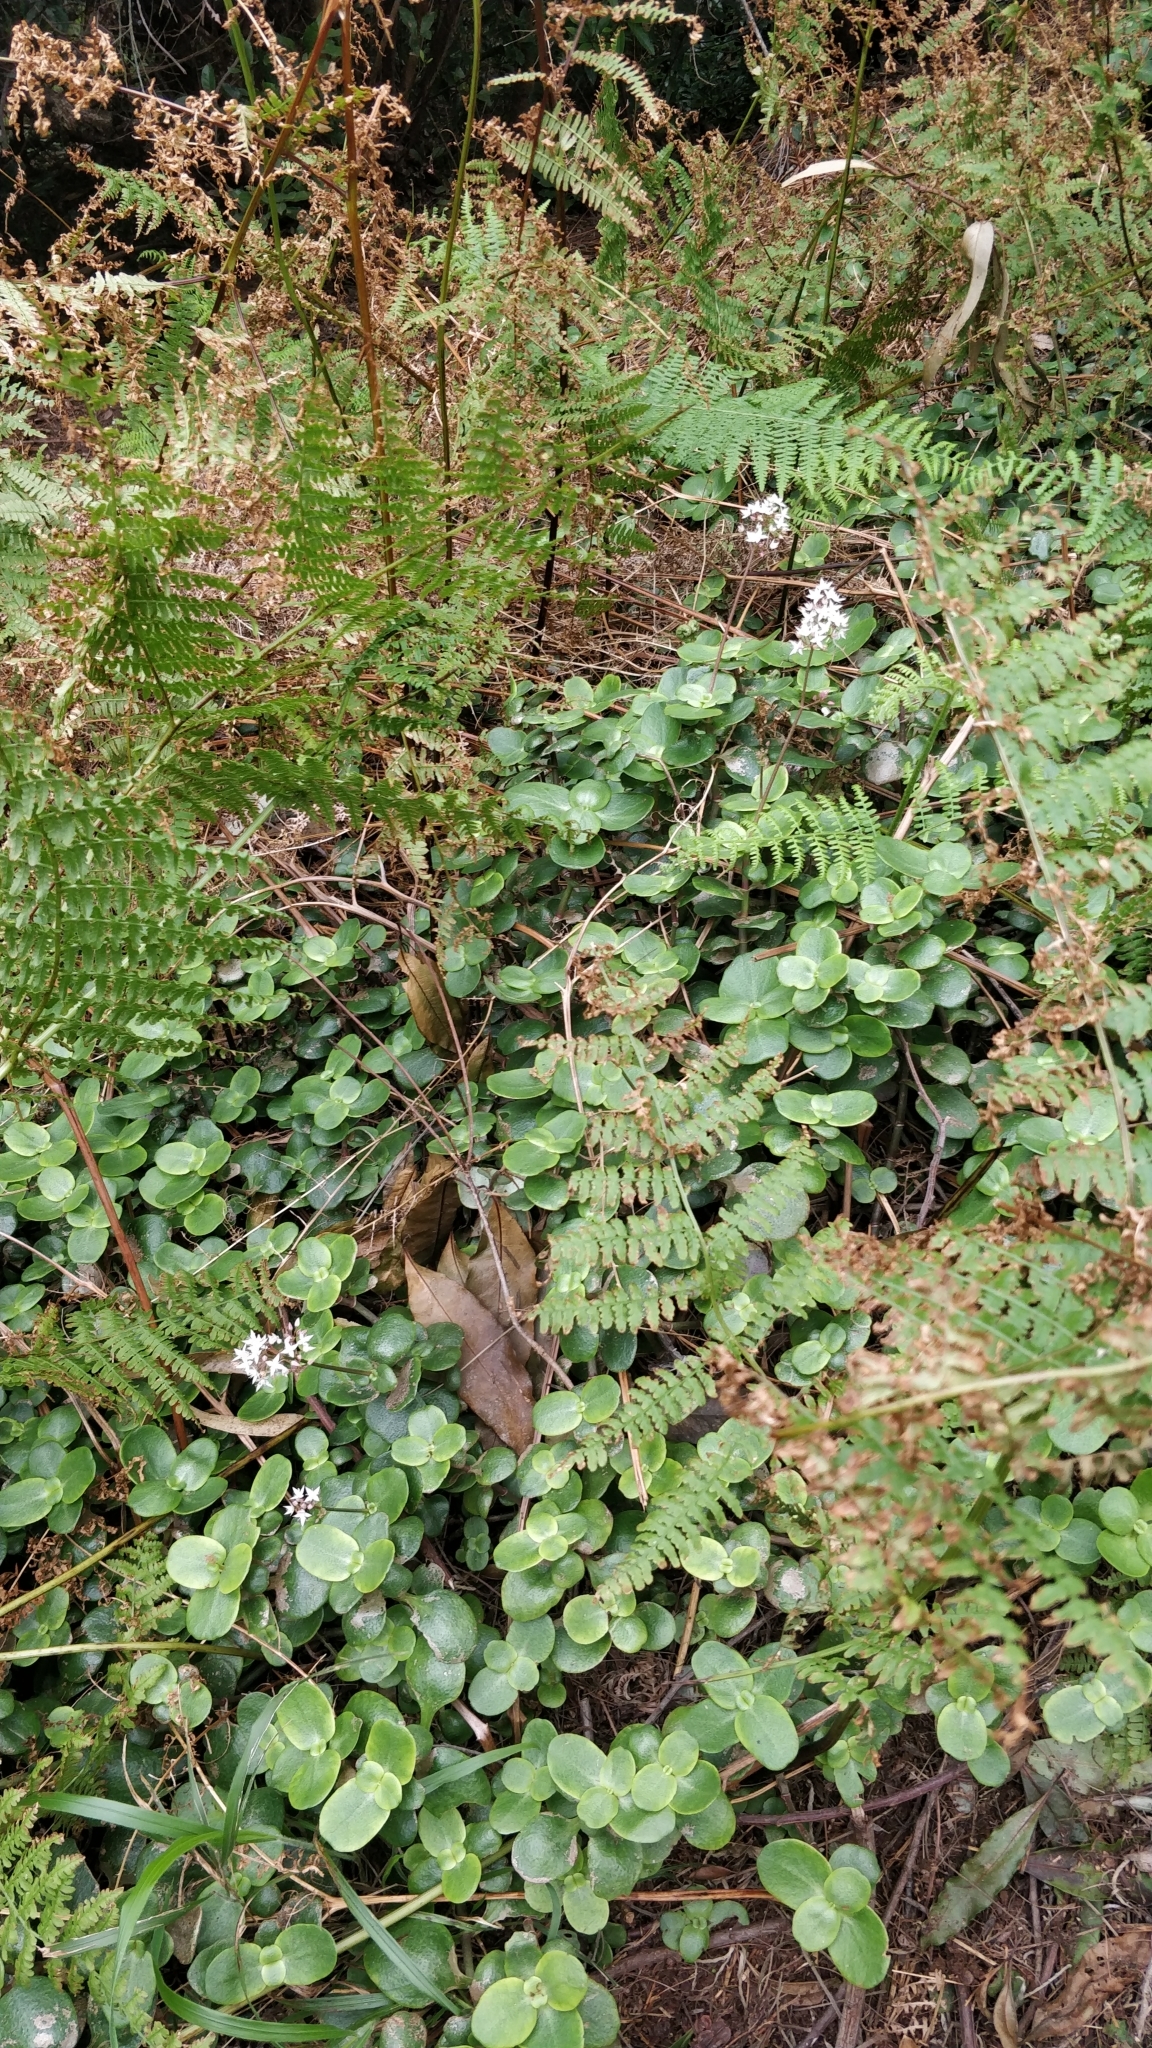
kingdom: Plantae
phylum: Tracheophyta
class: Magnoliopsida
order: Saxifragales
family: Crassulaceae
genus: Crassula
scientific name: Crassula multicava
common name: Cape province pygmyweed
